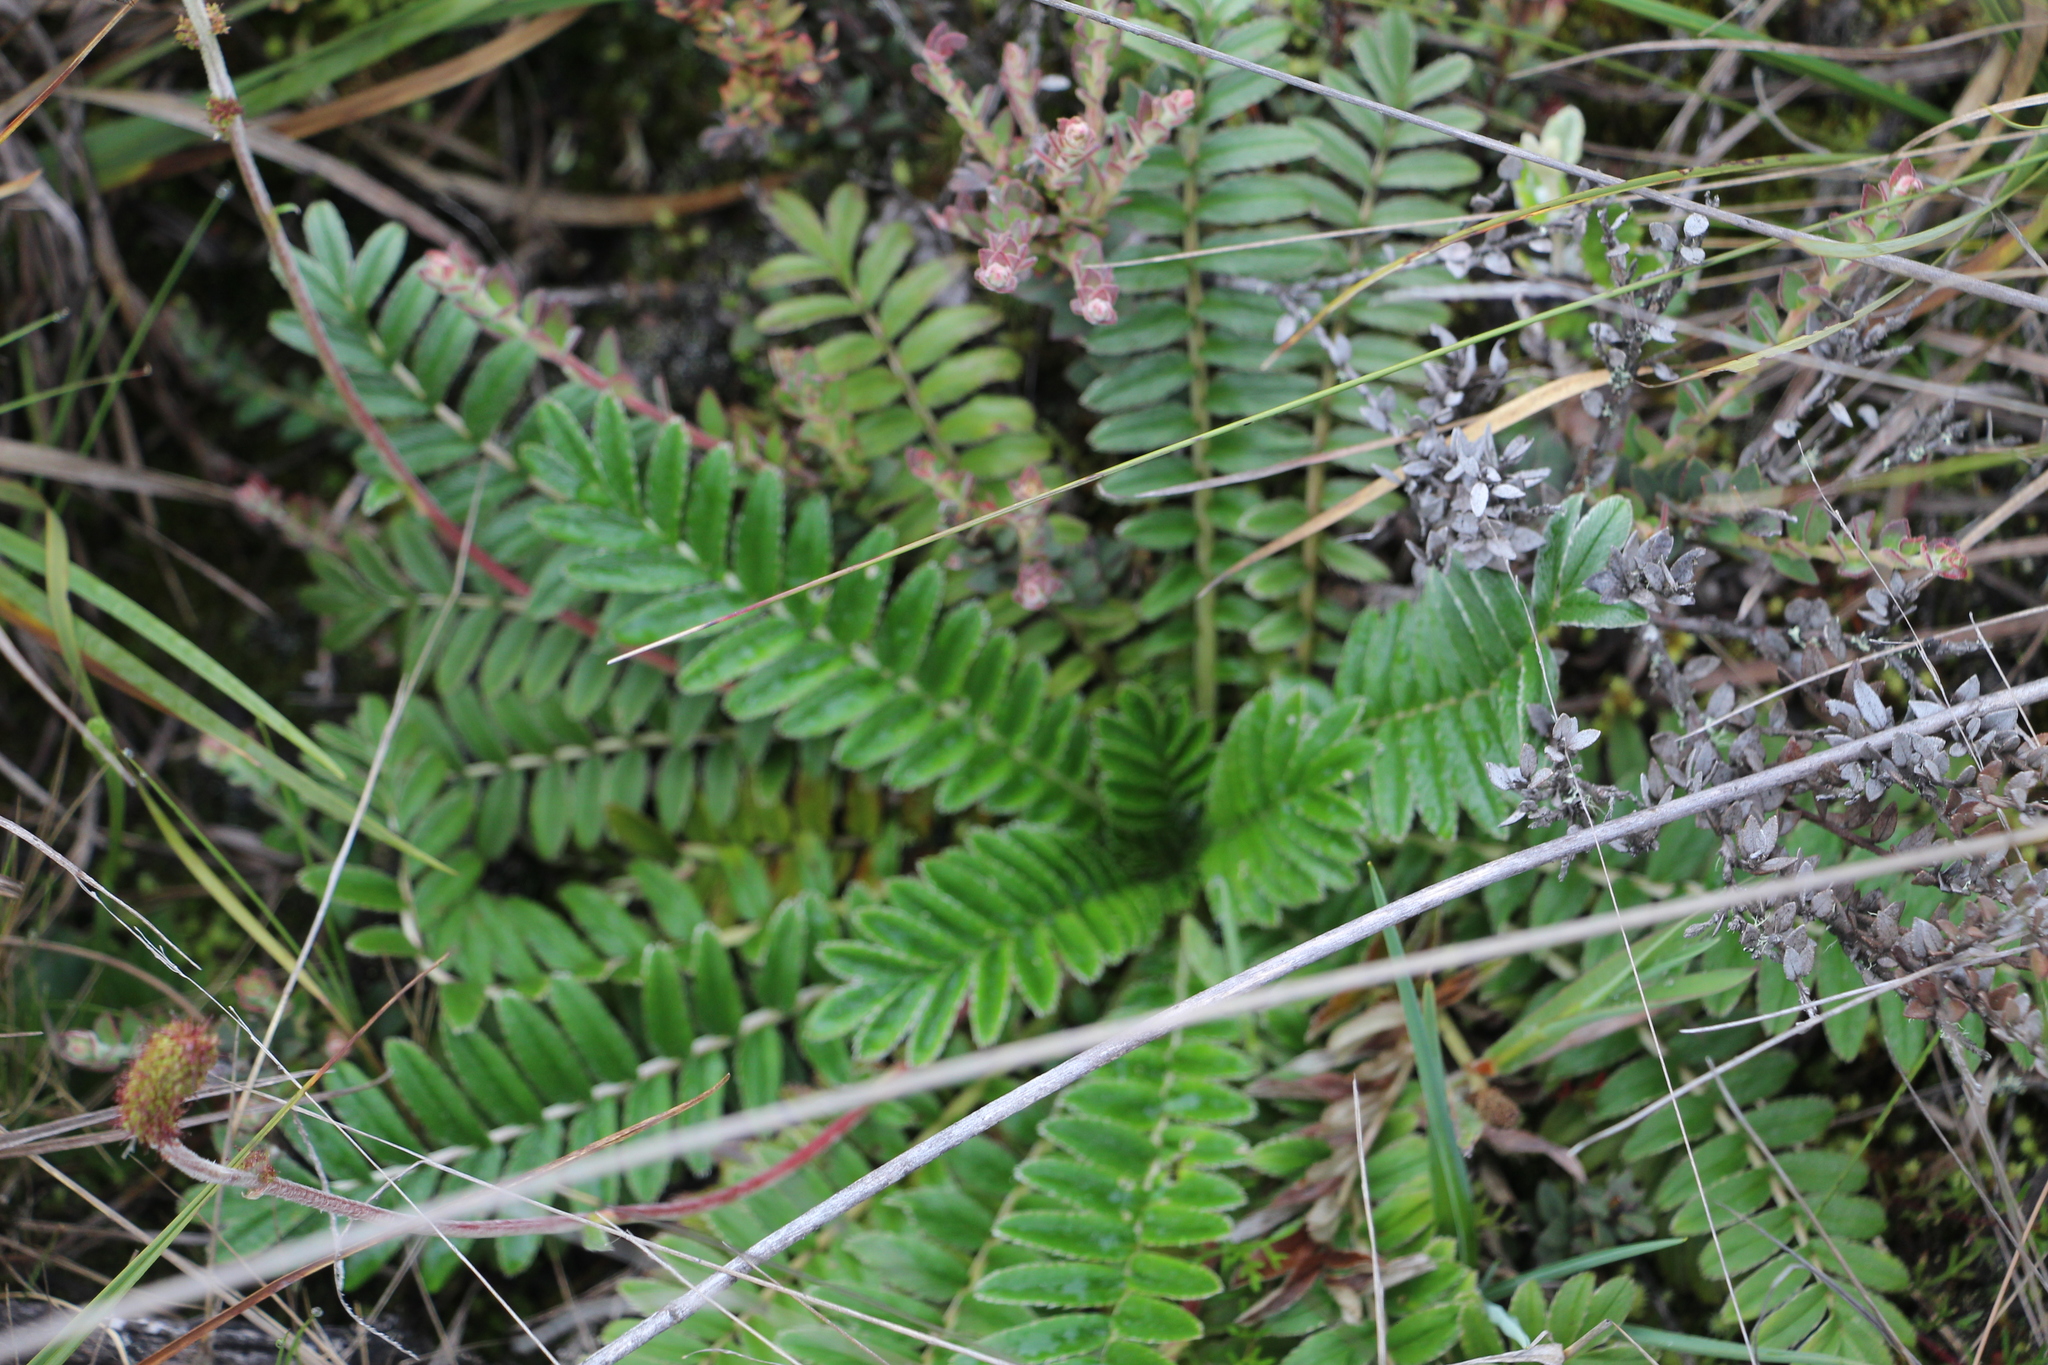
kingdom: Plantae
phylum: Tracheophyta
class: Magnoliopsida
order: Rosales
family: Rosaceae
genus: Acaena
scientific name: Acaena cylindristachya
